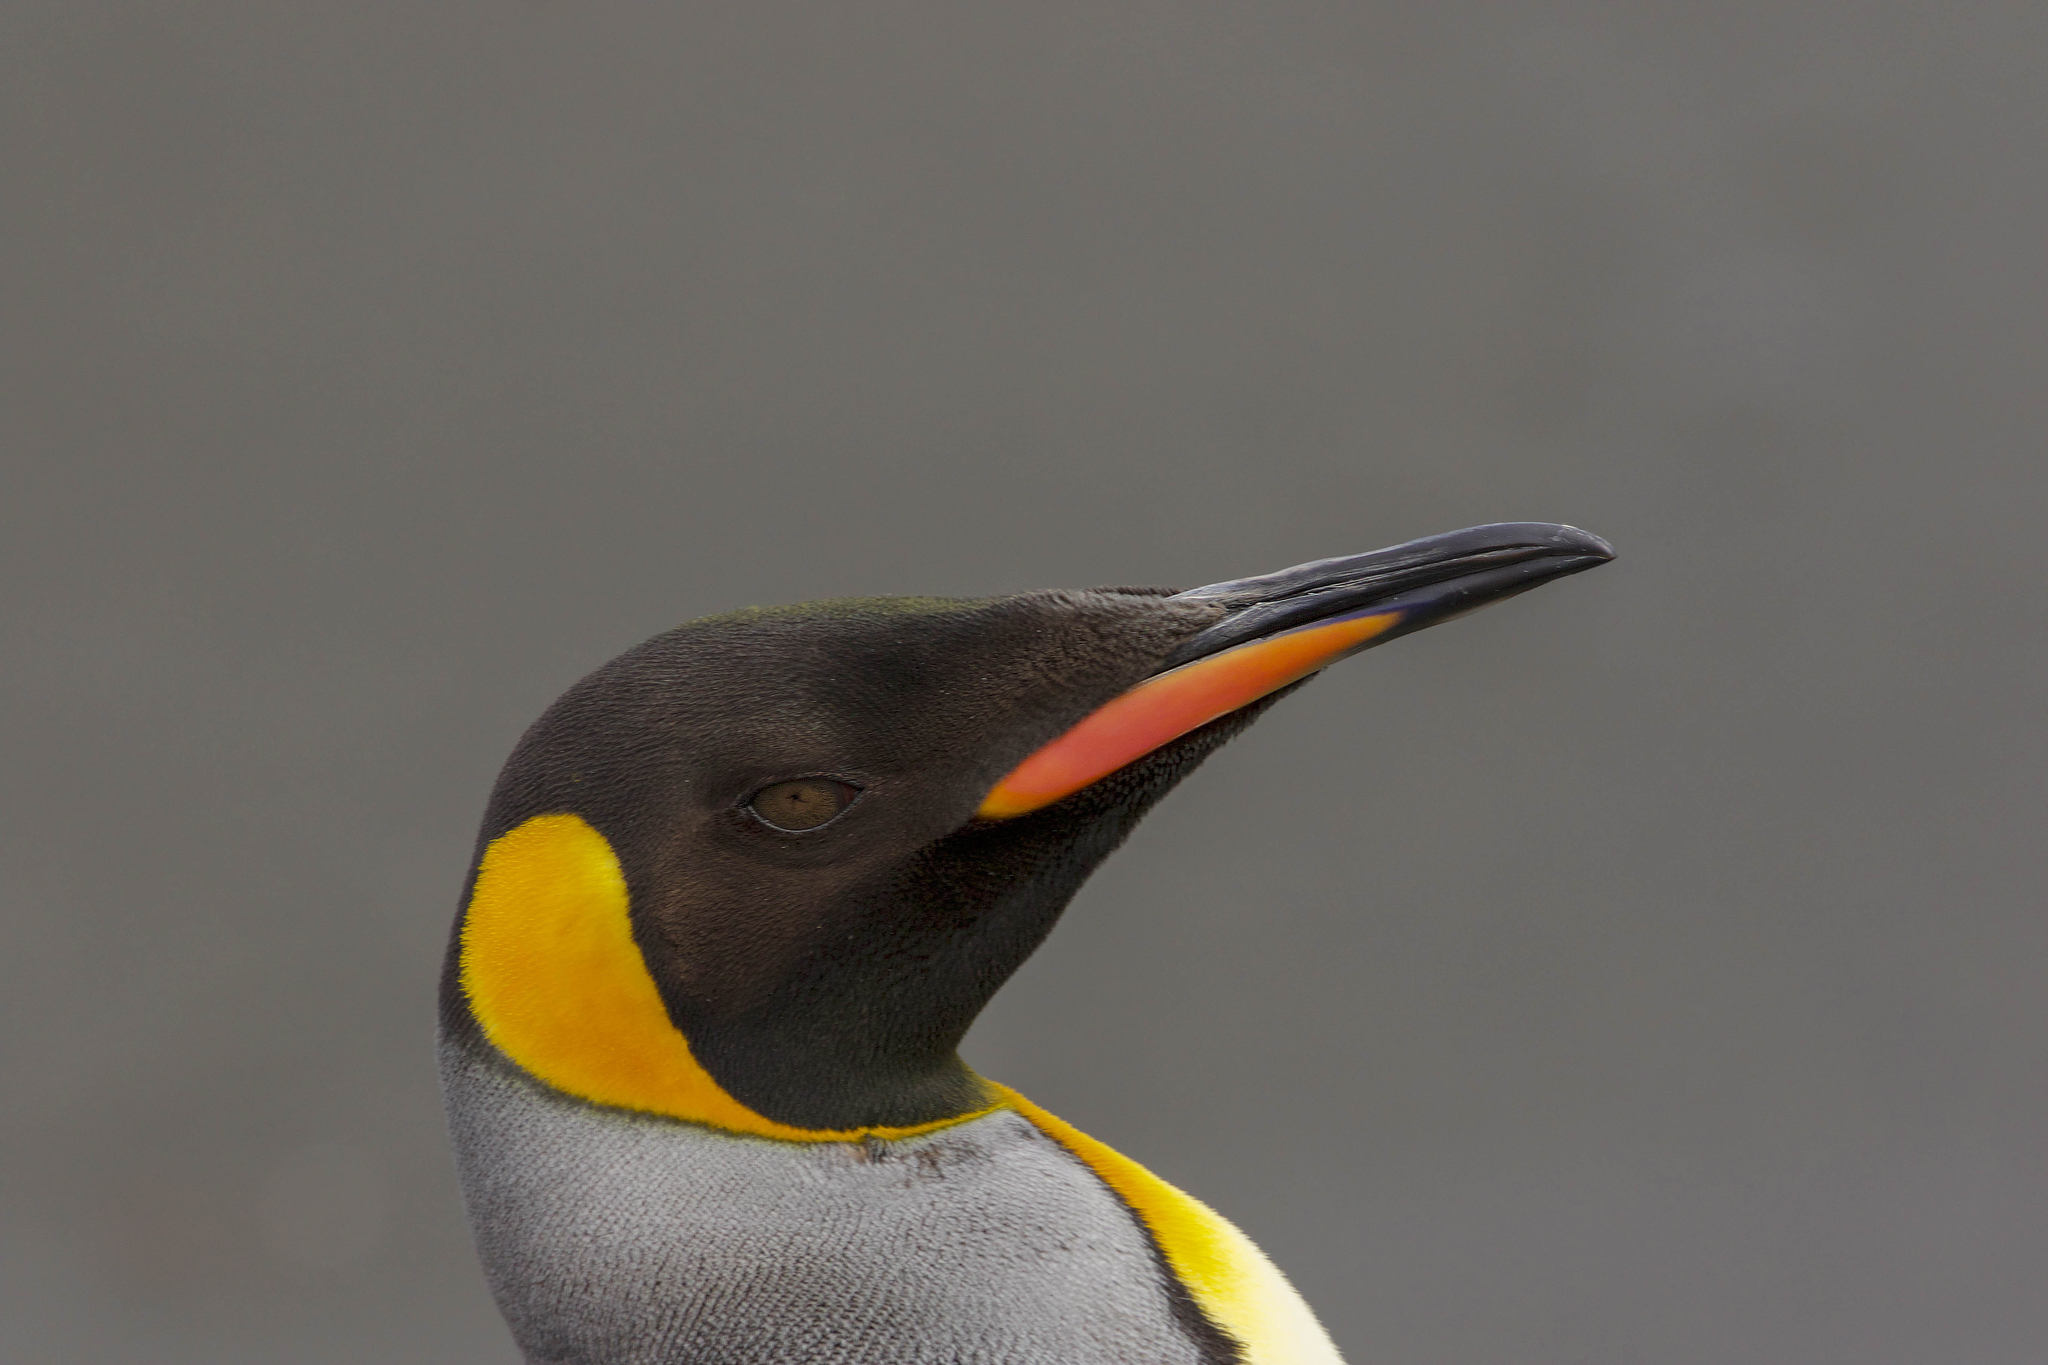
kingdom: Animalia
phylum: Chordata
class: Aves
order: Sphenisciformes
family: Spheniscidae
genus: Aptenodytes
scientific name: Aptenodytes patagonicus
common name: King penguin
